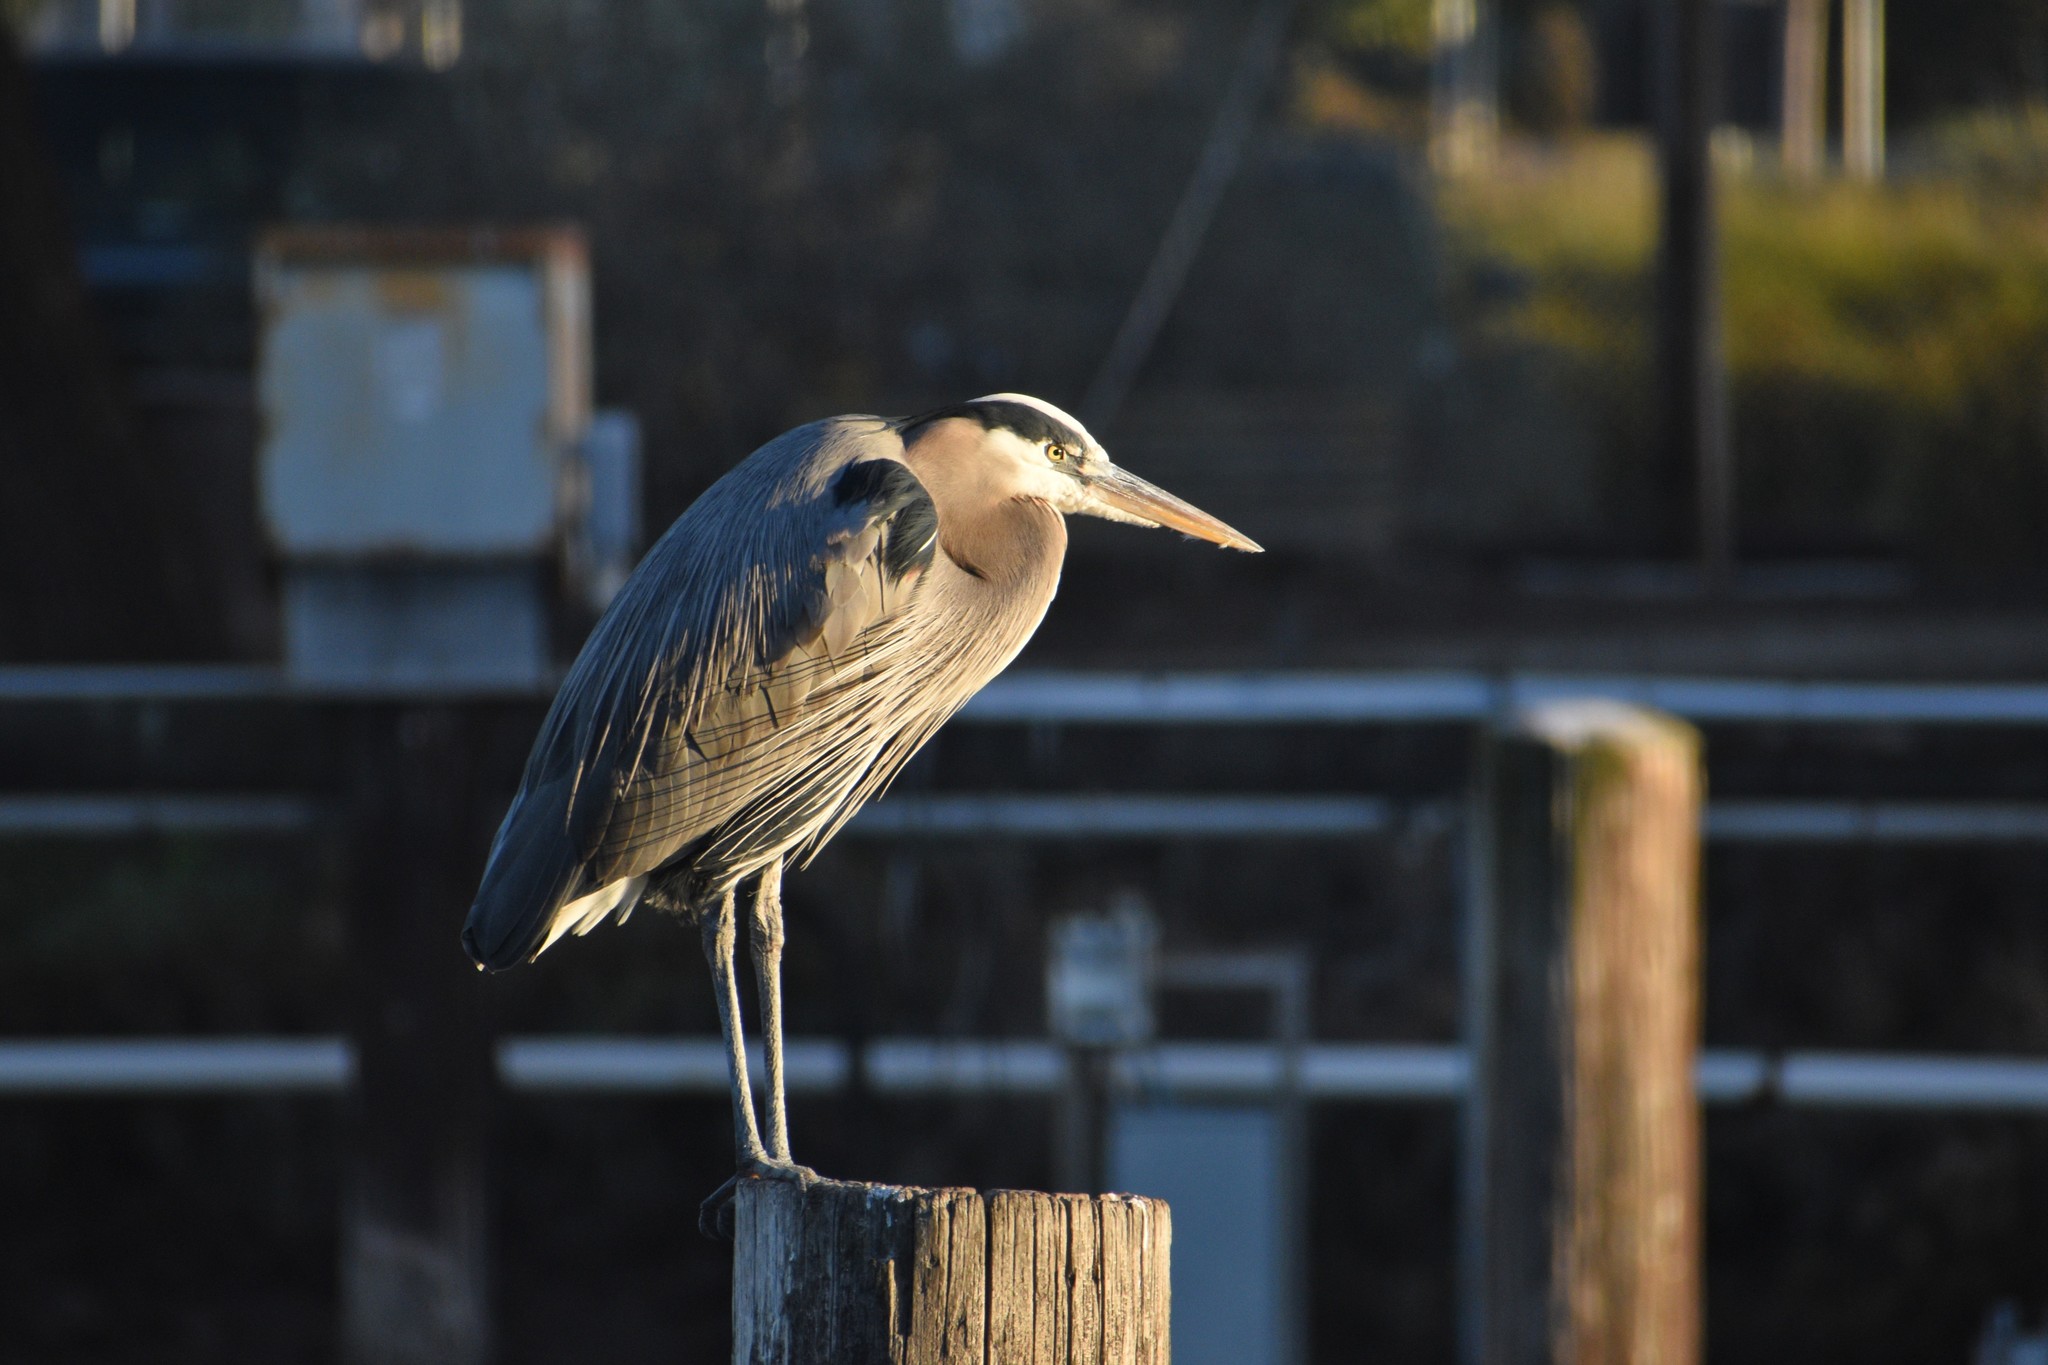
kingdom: Animalia
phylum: Chordata
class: Aves
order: Pelecaniformes
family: Ardeidae
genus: Ardea
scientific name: Ardea herodias
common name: Great blue heron
